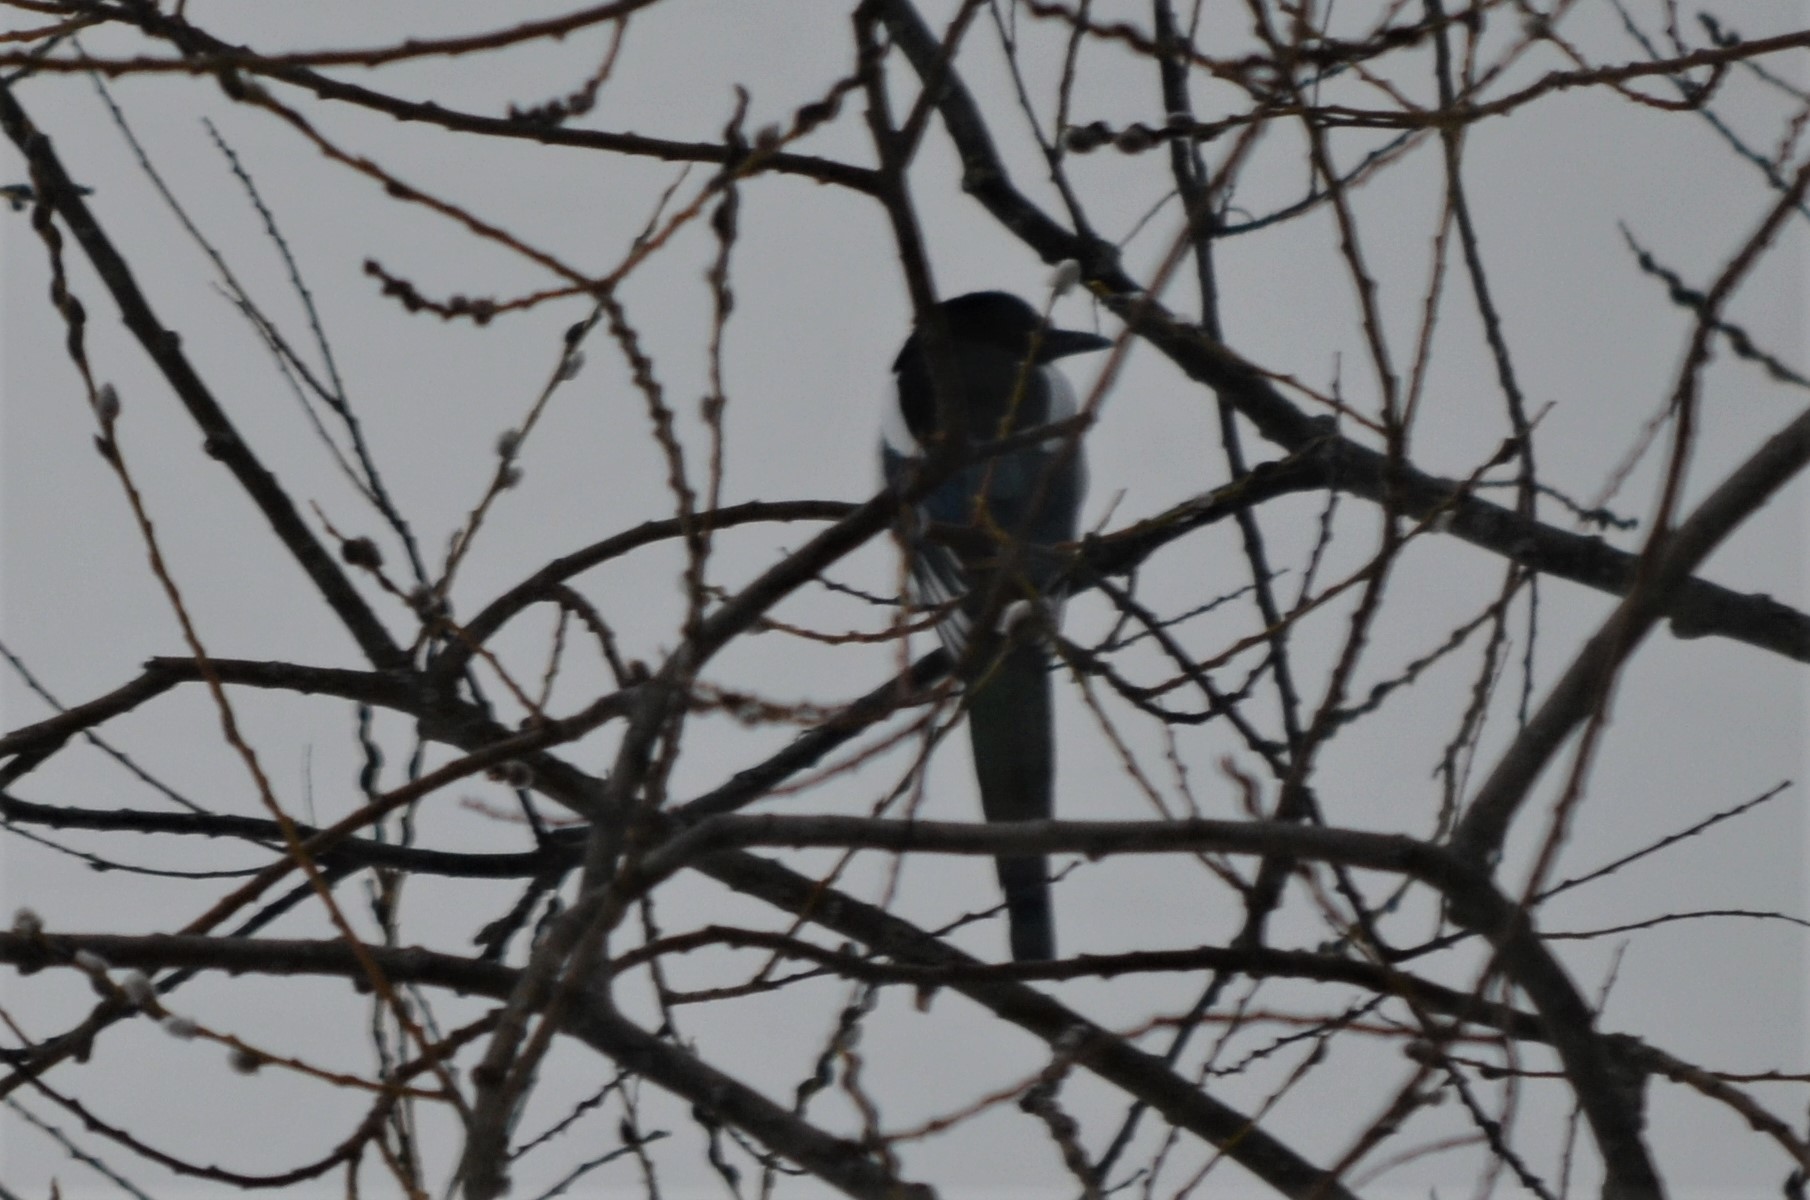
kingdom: Animalia
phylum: Chordata
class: Aves
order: Passeriformes
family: Corvidae
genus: Pica
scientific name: Pica pica
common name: Eurasian magpie
